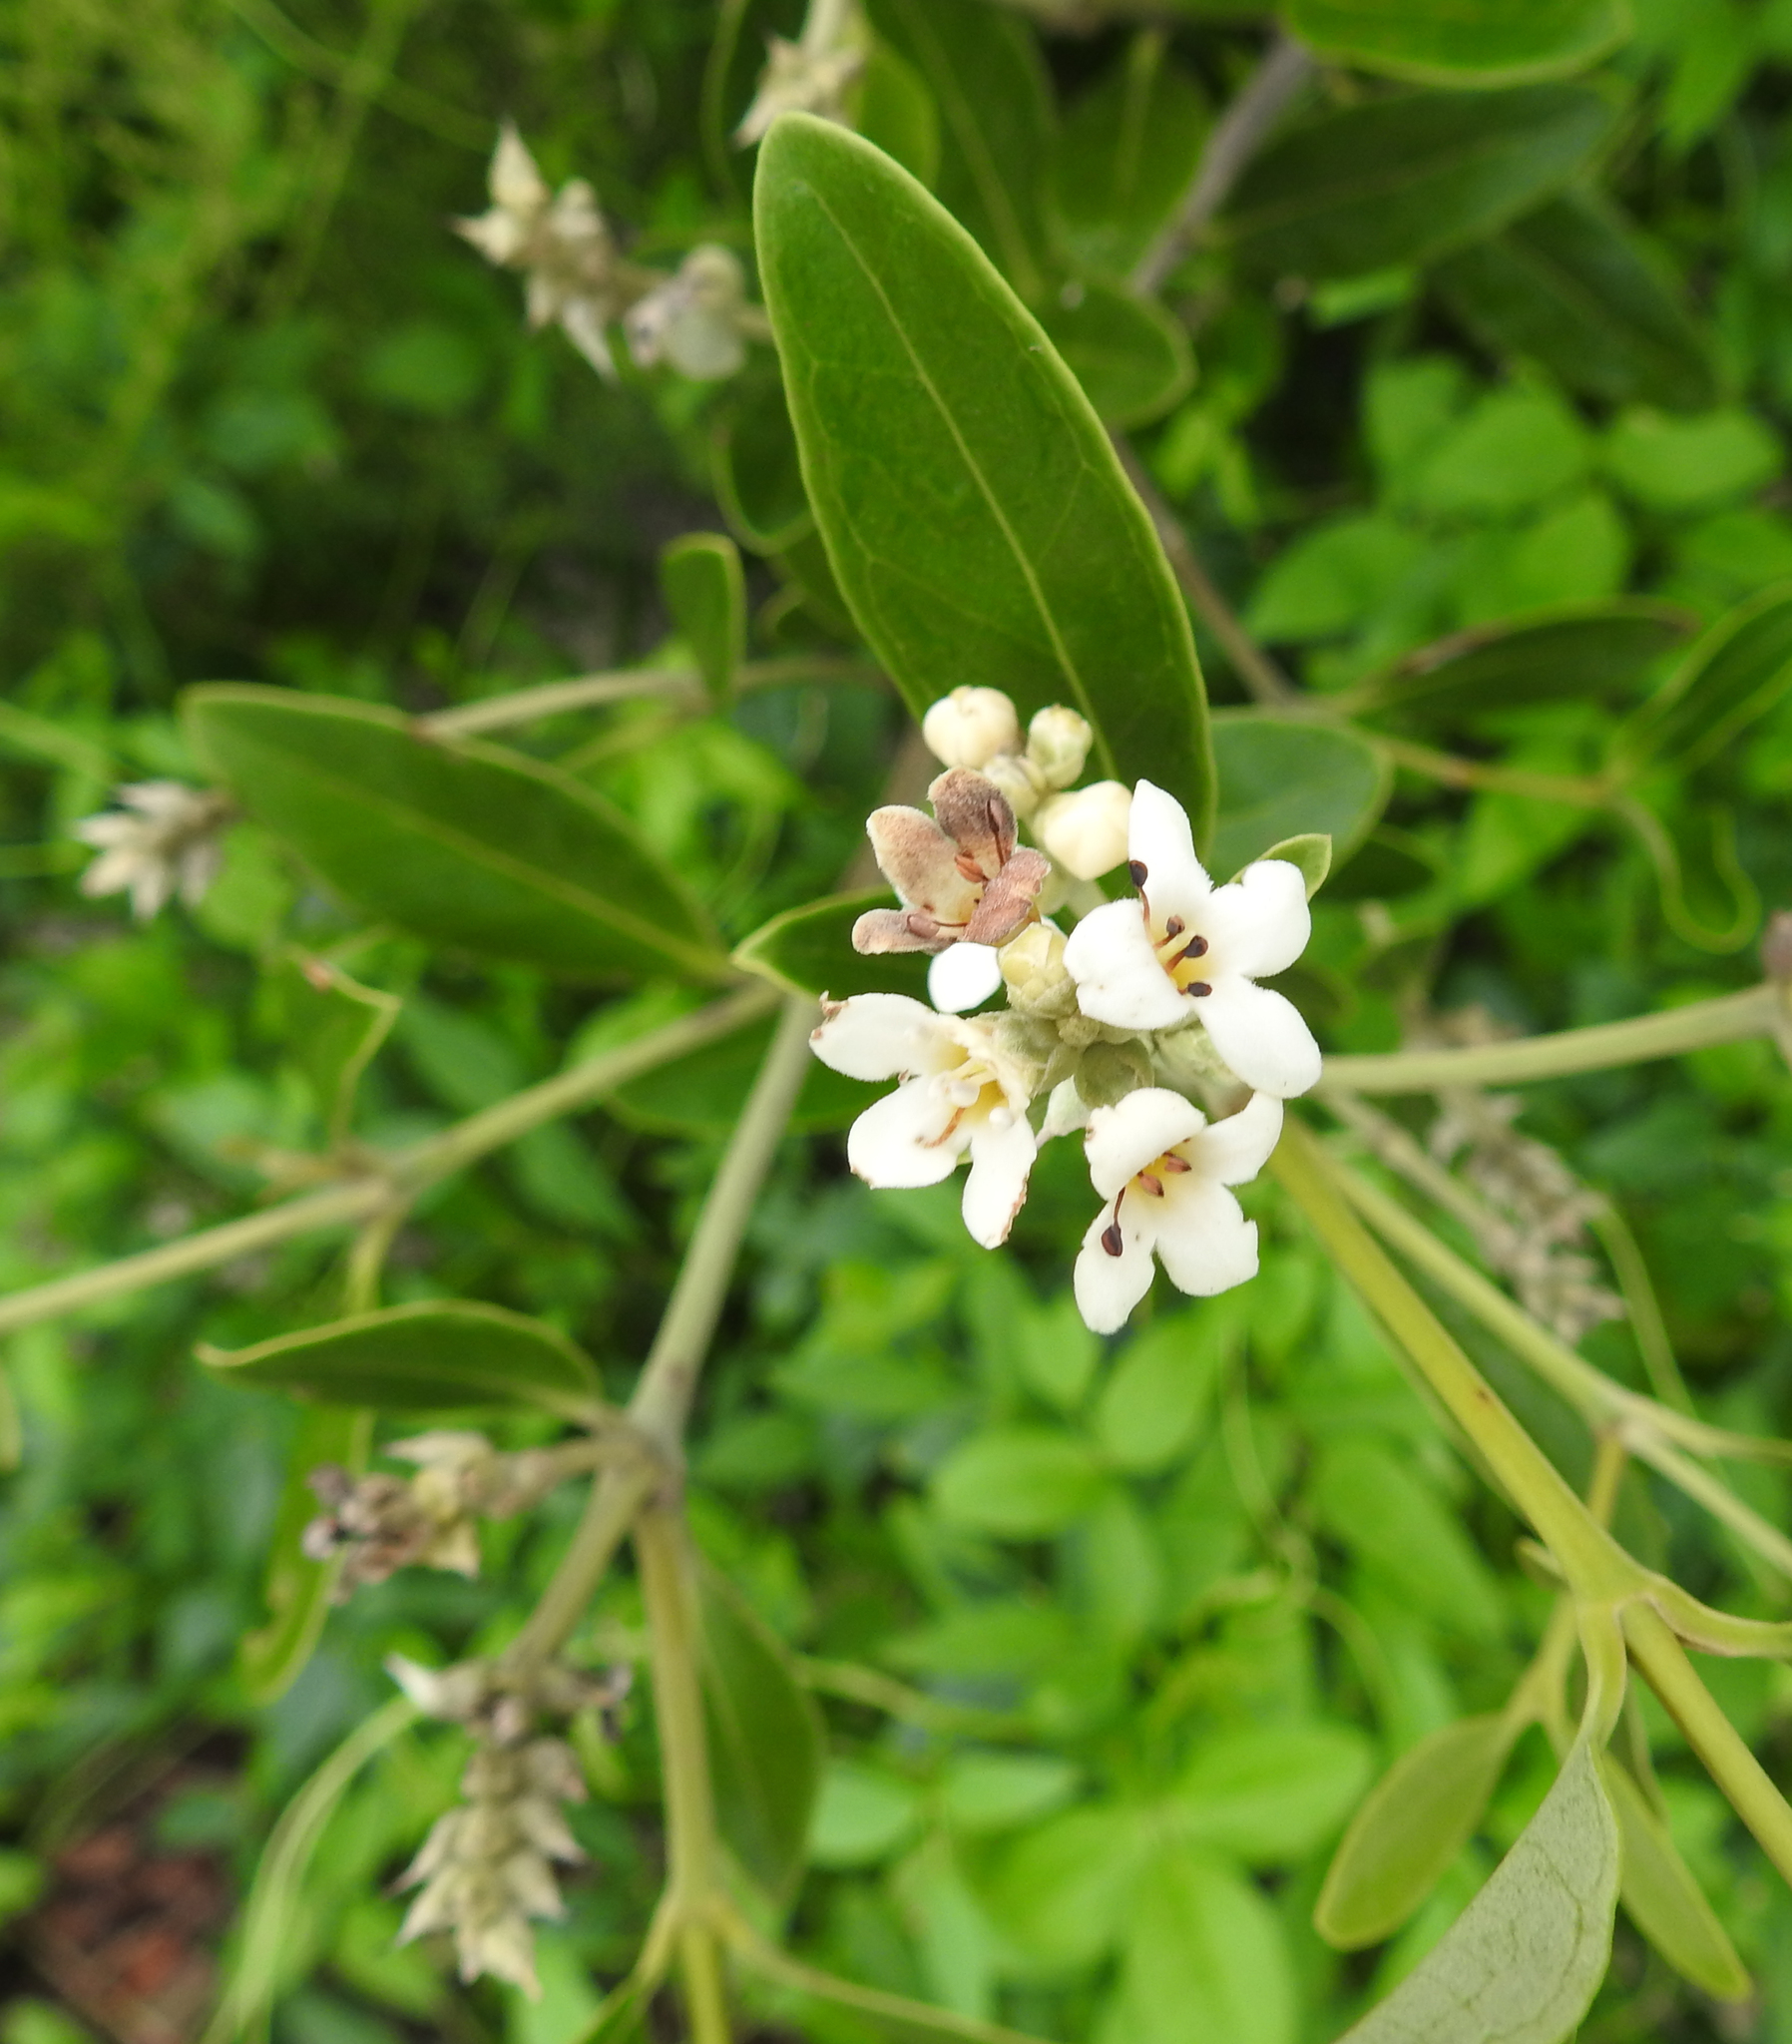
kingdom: Plantae
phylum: Tracheophyta
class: Magnoliopsida
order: Lamiales
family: Acanthaceae
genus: Avicennia
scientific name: Avicennia germinans
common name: Black mangrove
